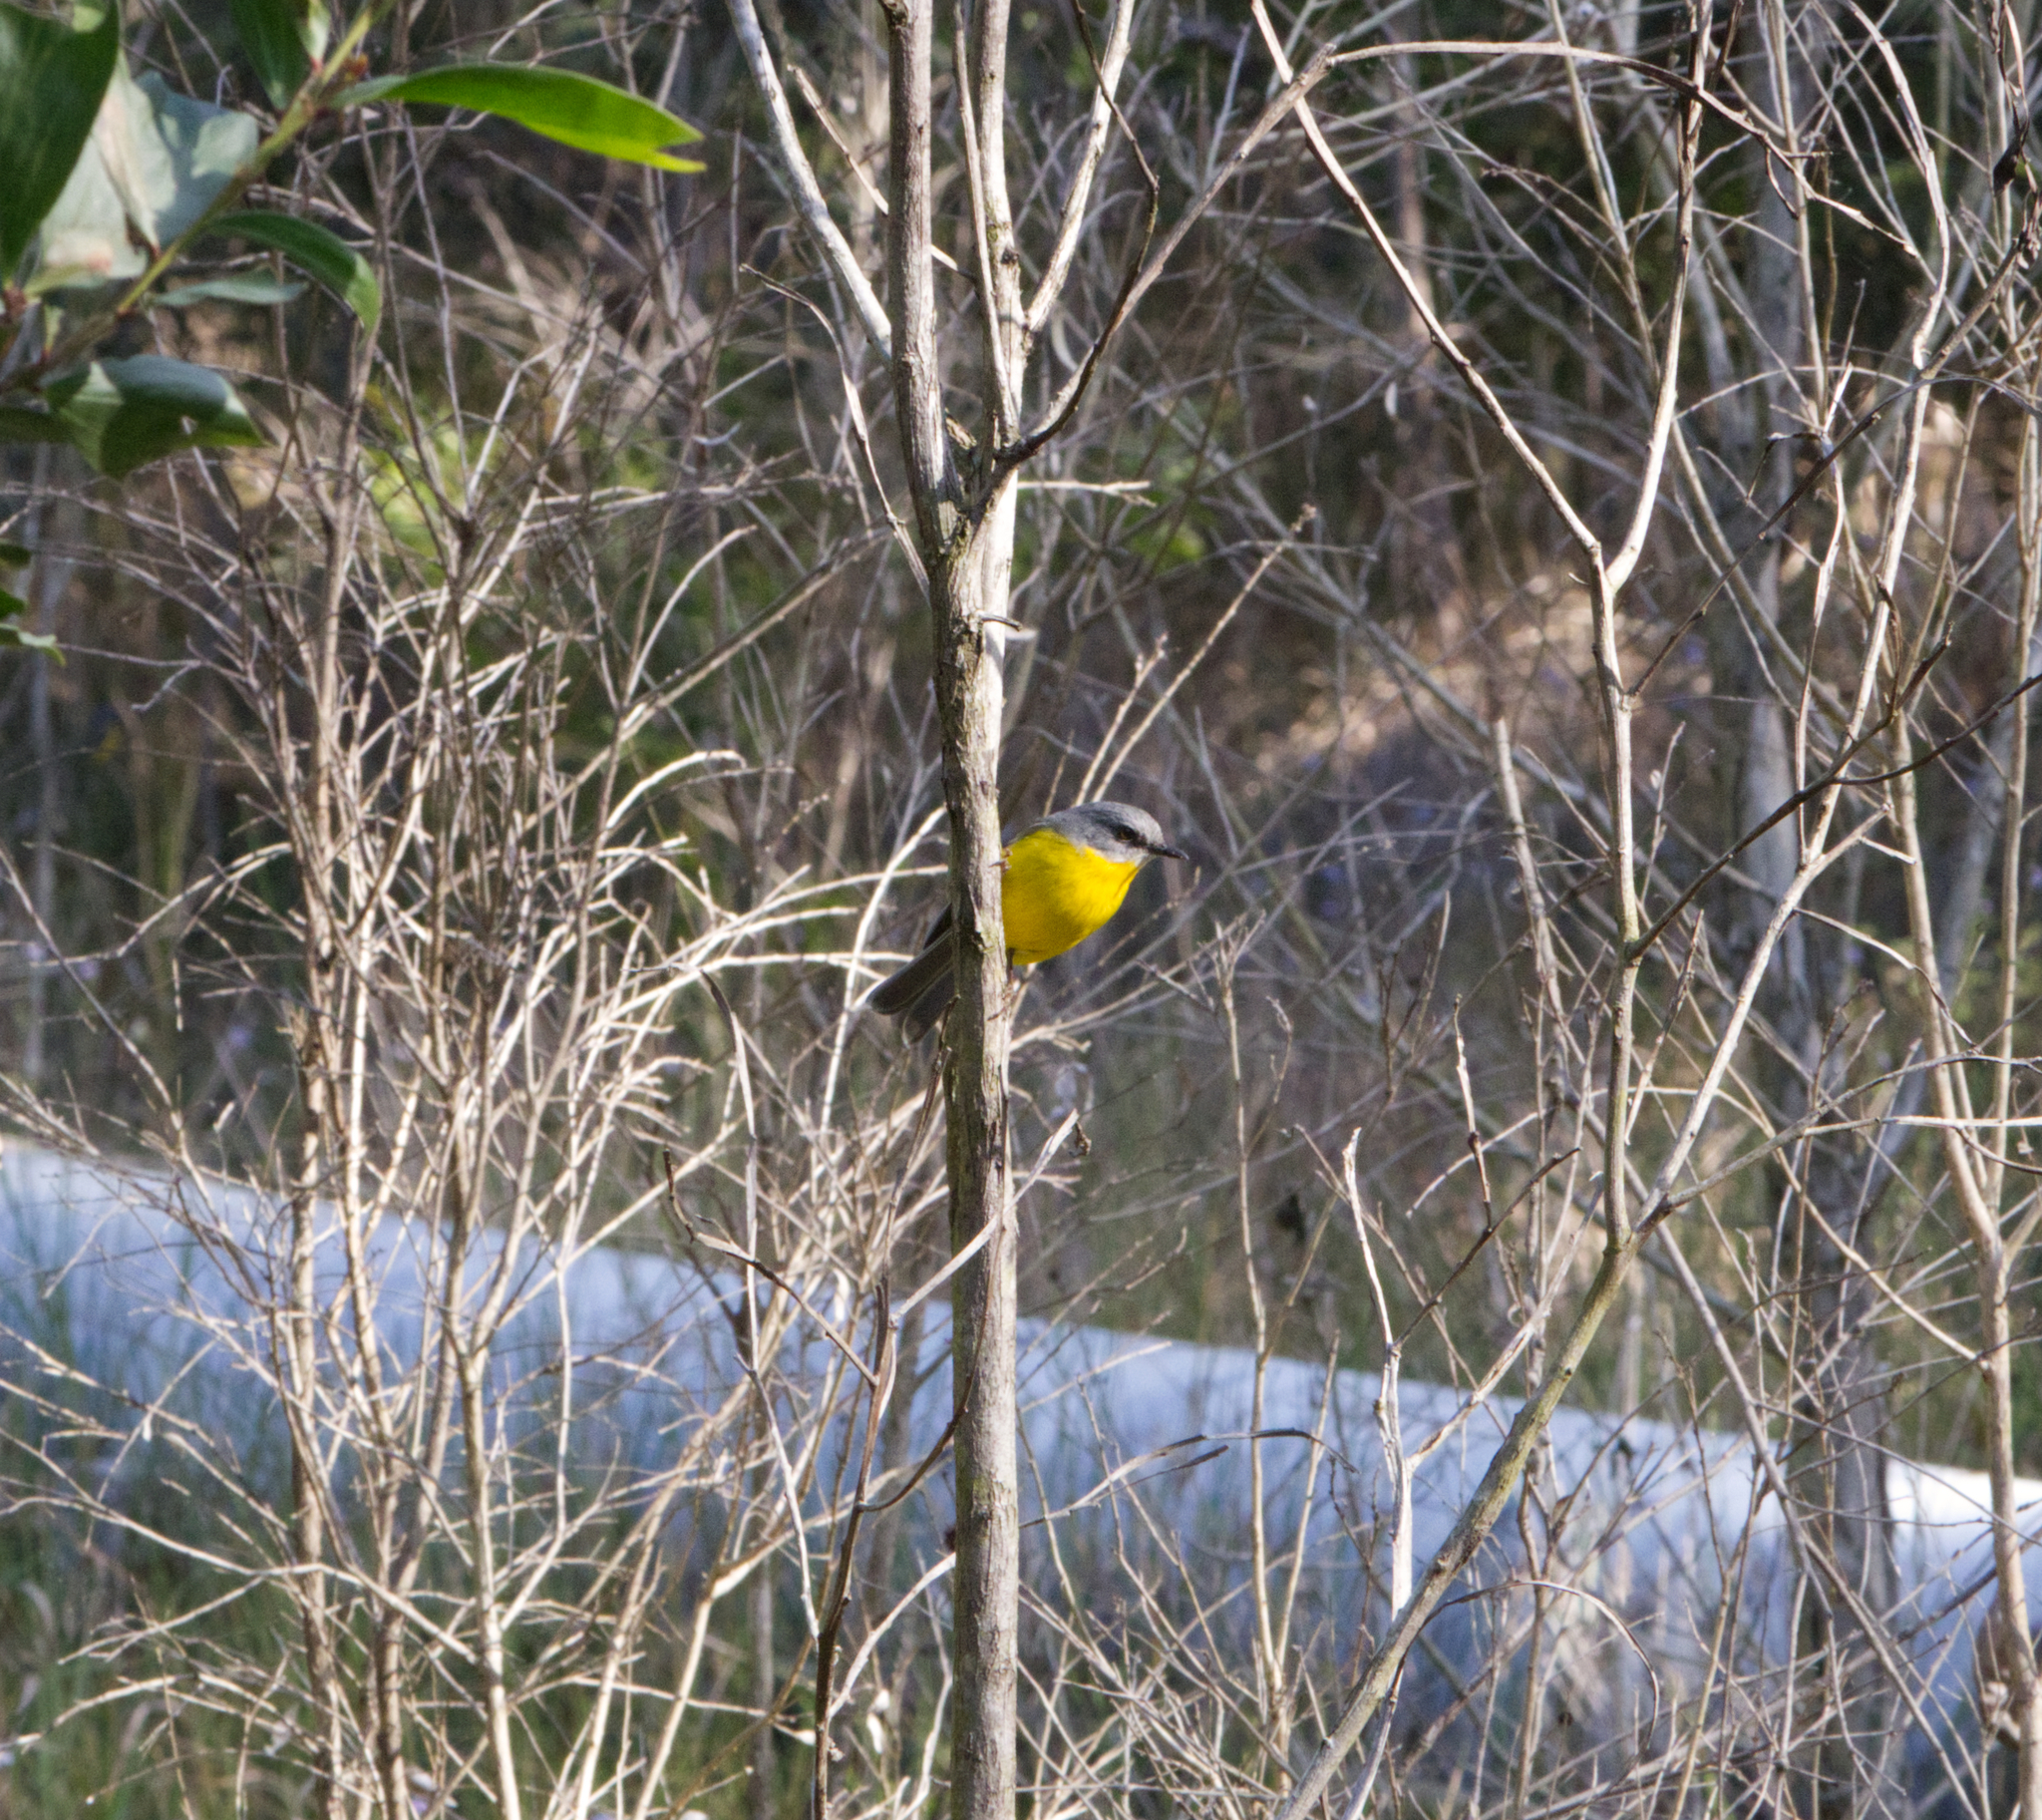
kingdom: Animalia
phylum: Chordata
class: Aves
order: Passeriformes
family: Petroicidae
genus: Eopsaltria
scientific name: Eopsaltria australis
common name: Eastern yellow robin
